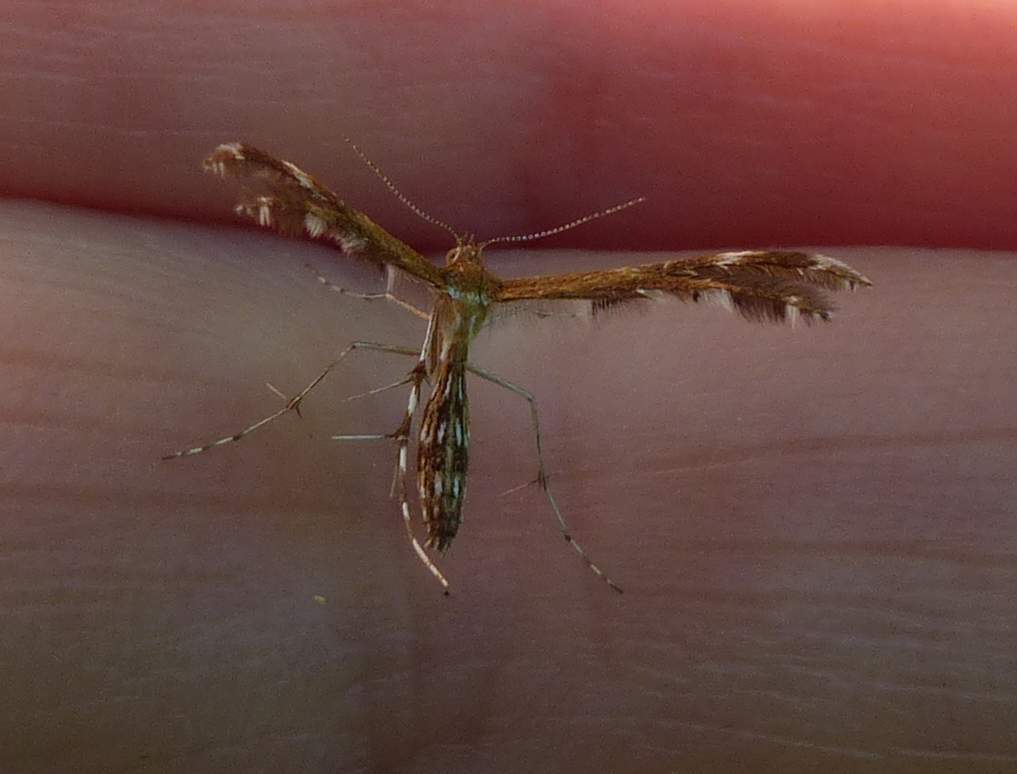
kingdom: Animalia
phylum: Arthropoda
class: Insecta
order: Lepidoptera
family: Pterophoridae
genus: Dejongia
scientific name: Dejongia lobidactylus
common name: Lobed plume moth
